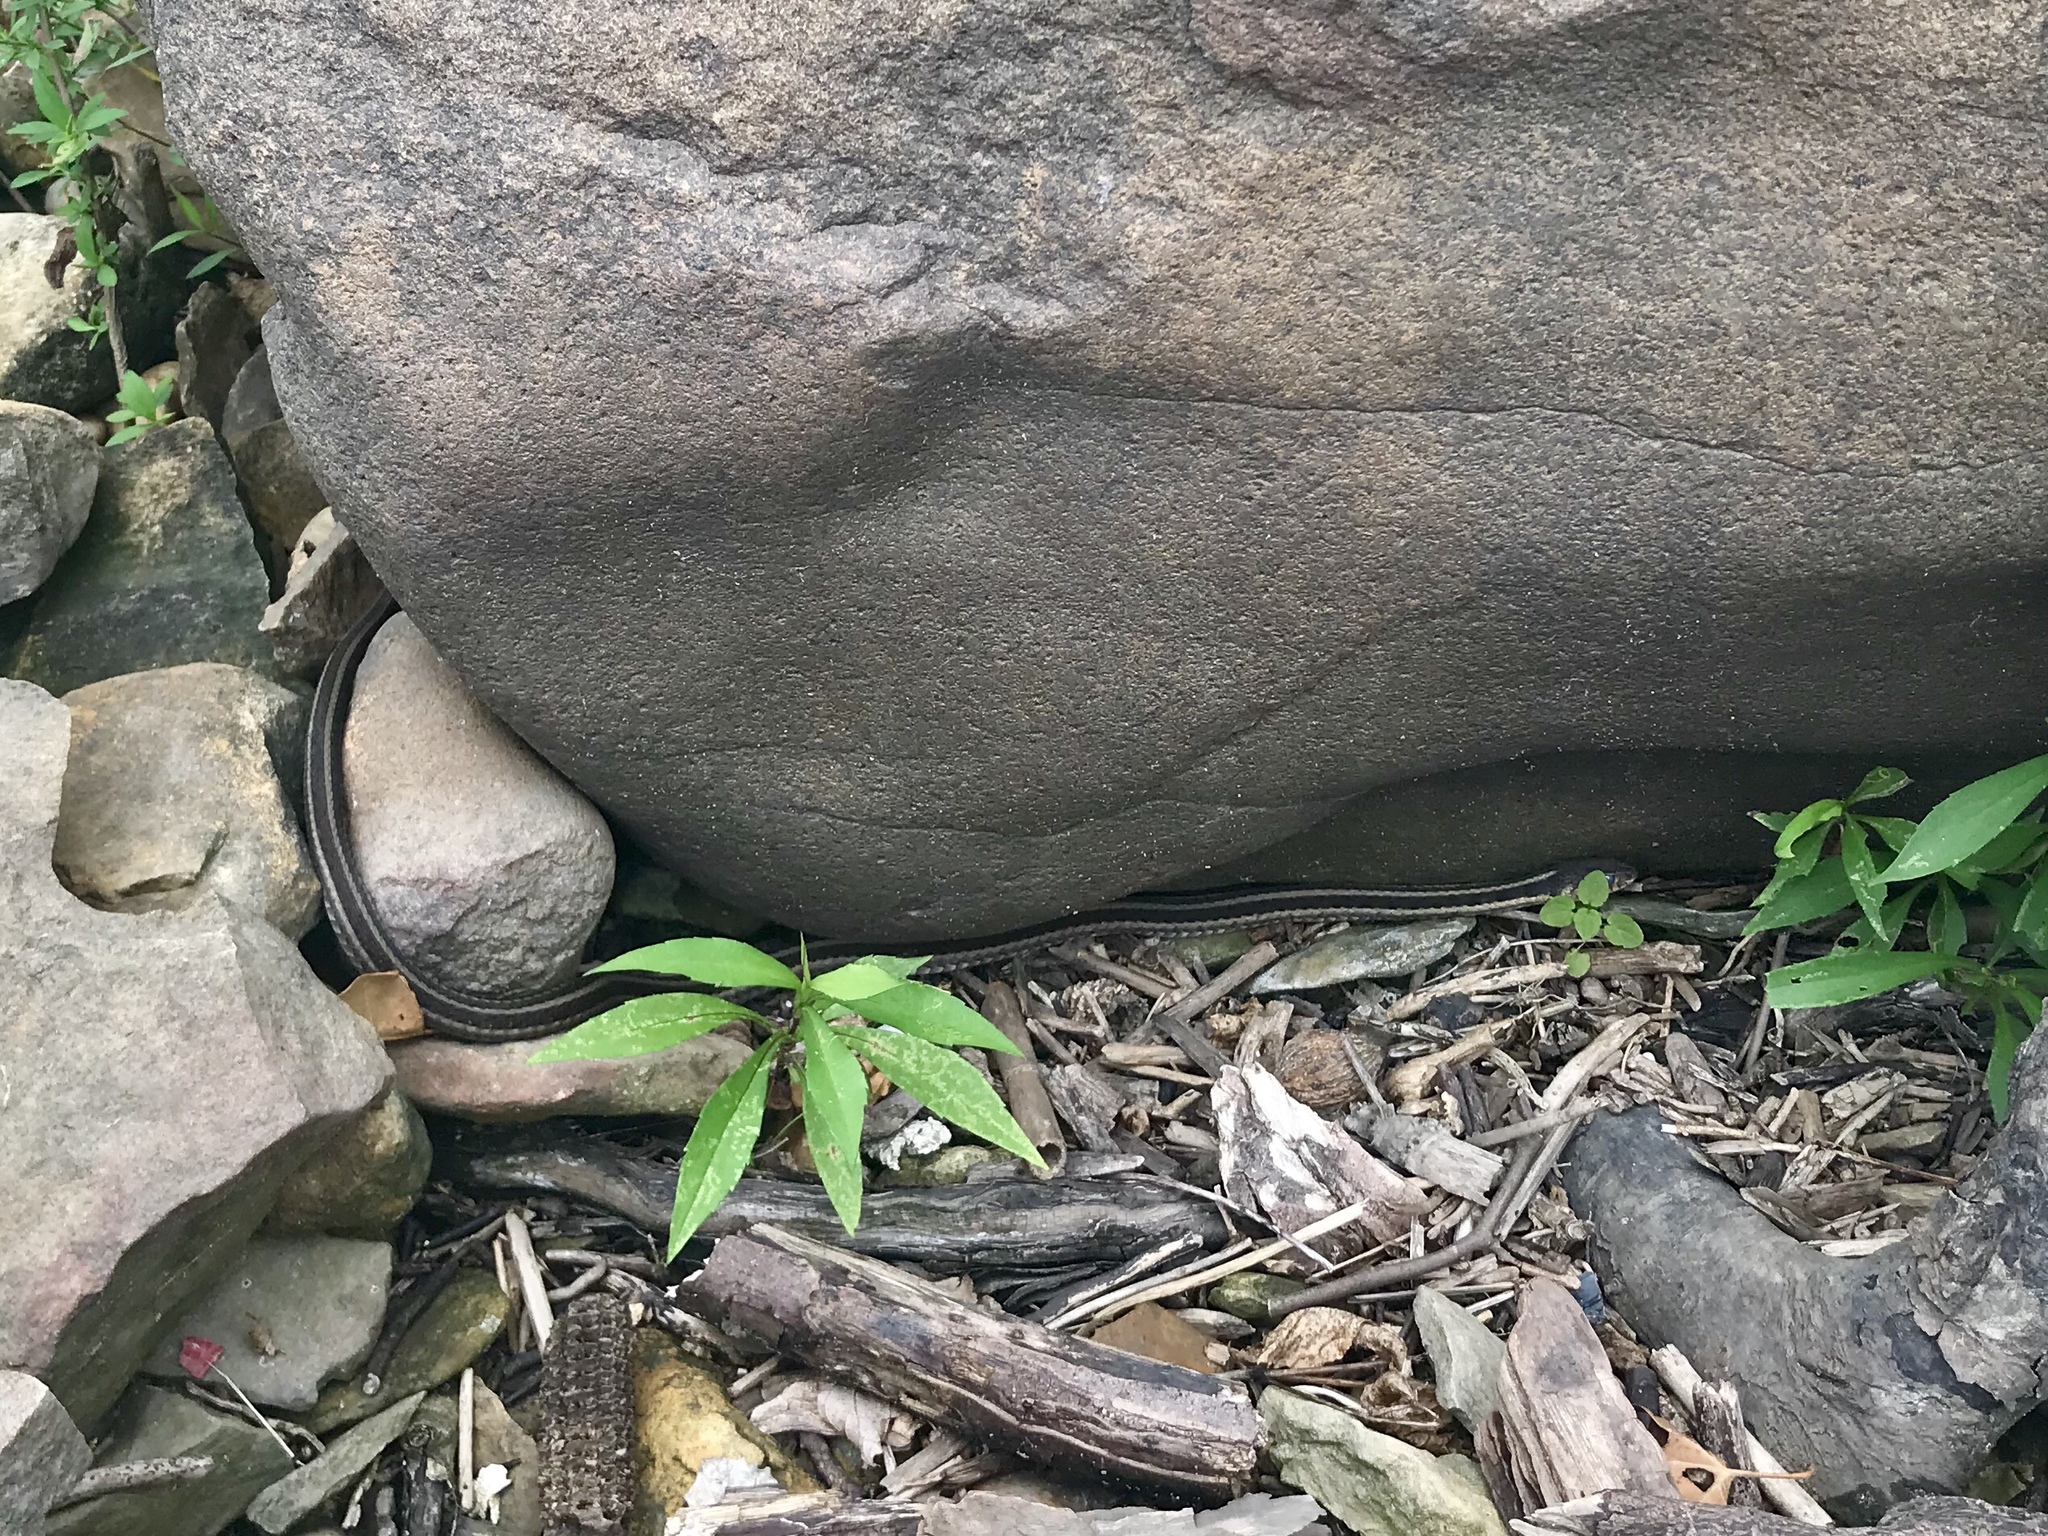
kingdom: Animalia
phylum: Chordata
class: Squamata
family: Colubridae
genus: Thamnophis
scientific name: Thamnophis sirtalis
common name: Common garter snake
